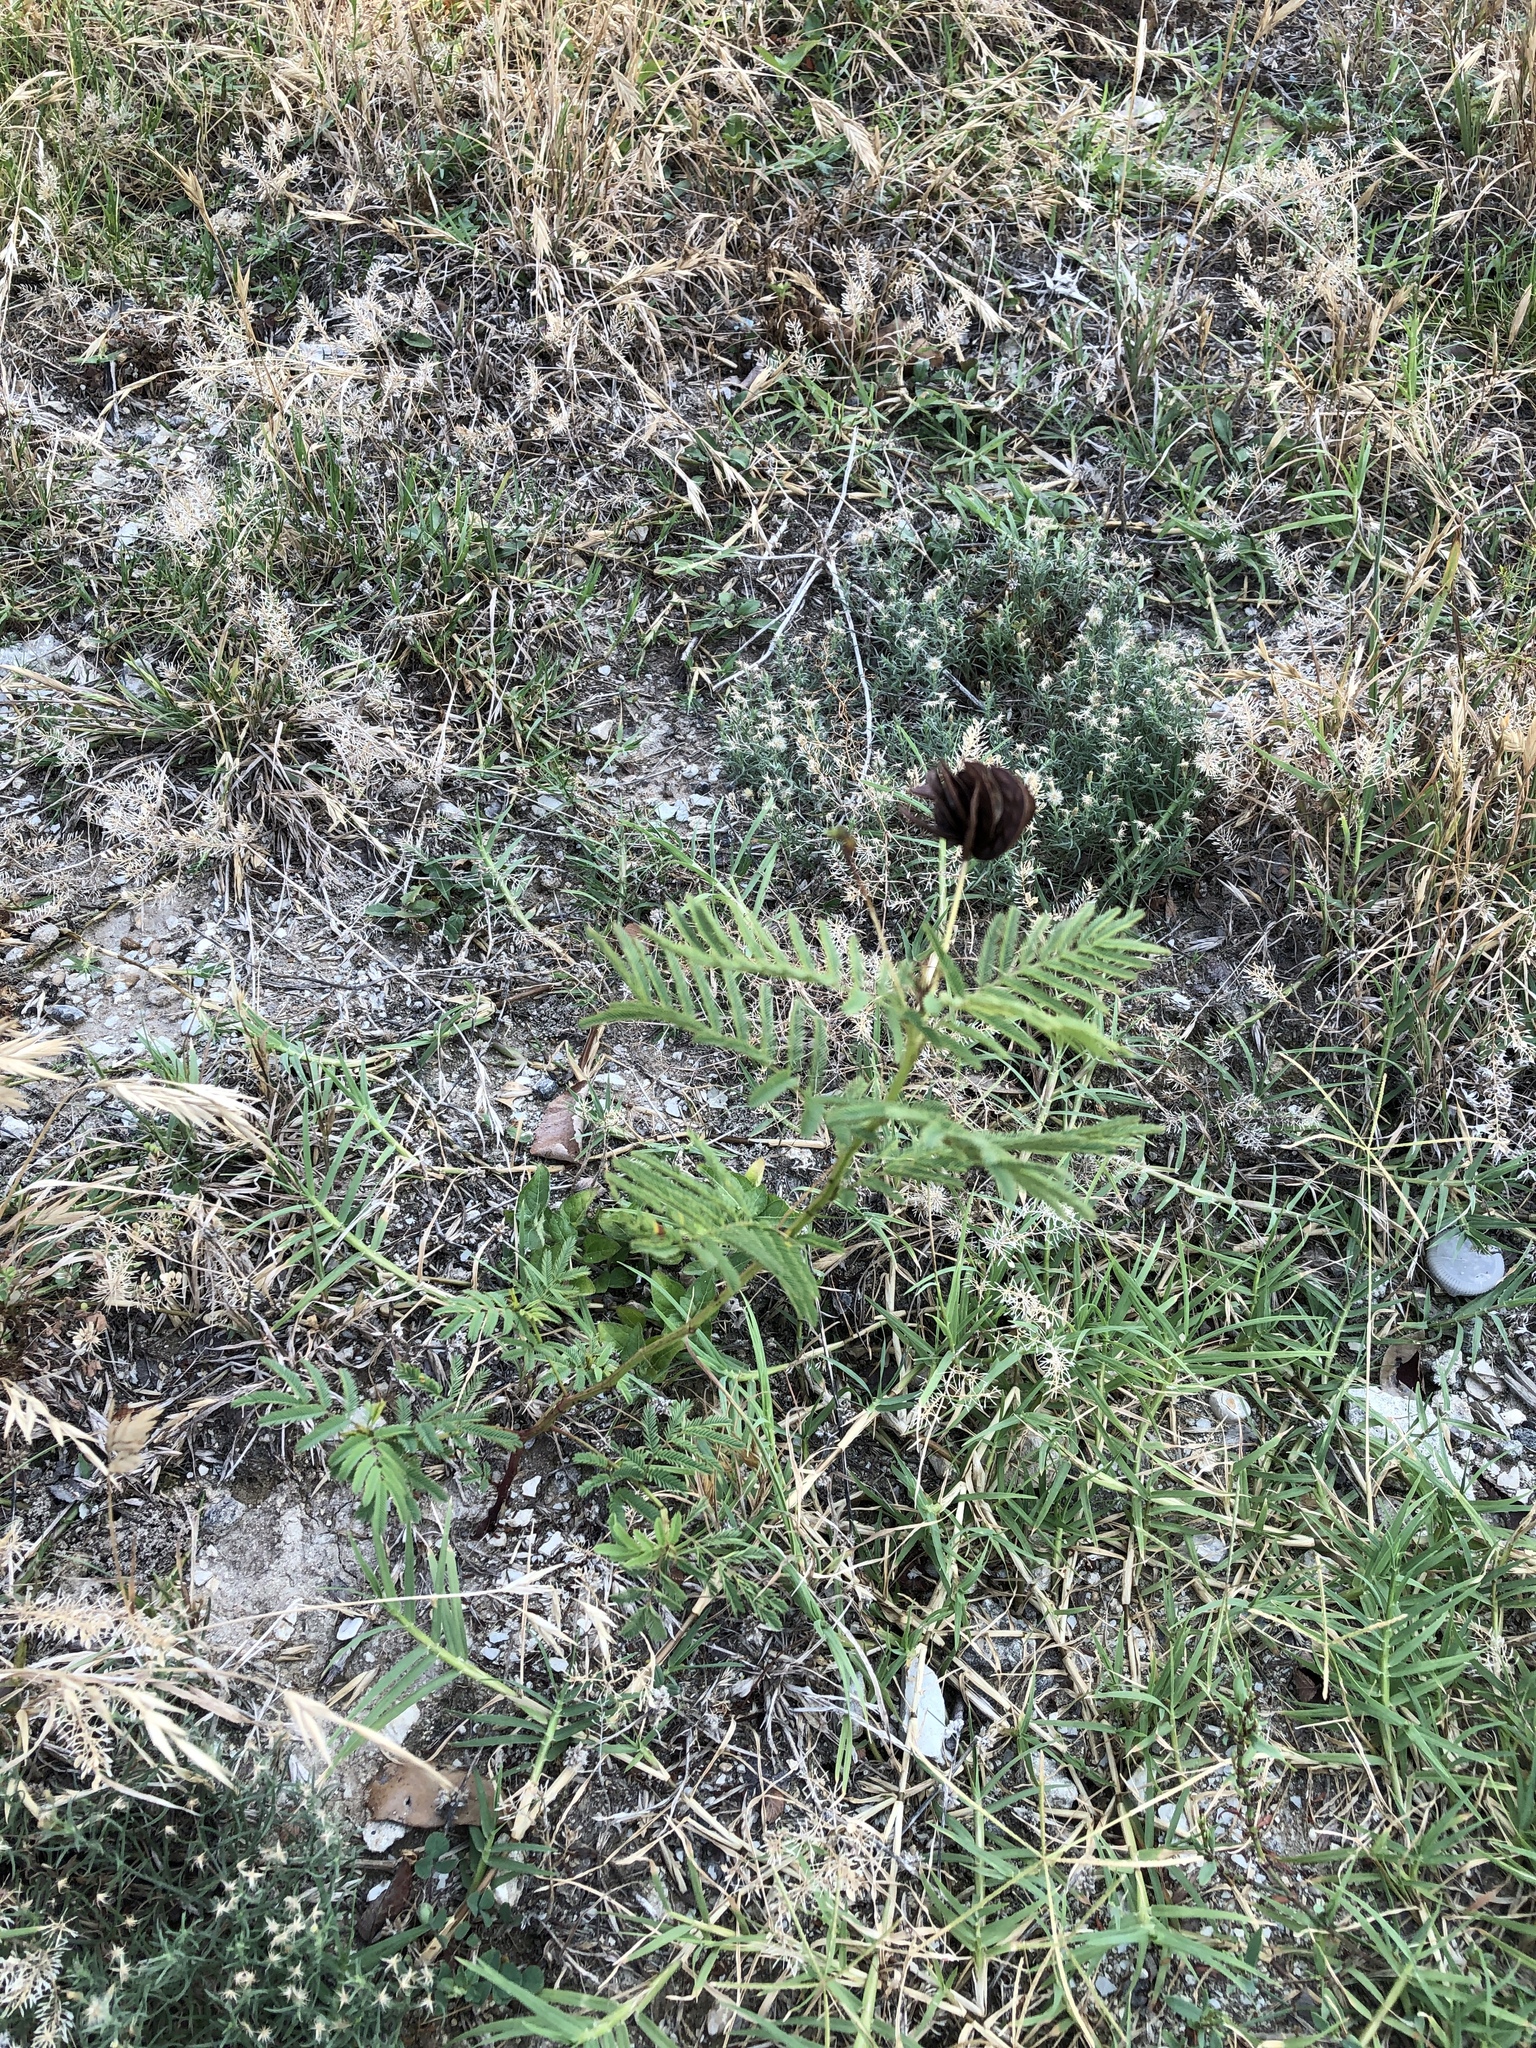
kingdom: Plantae
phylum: Tracheophyta
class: Magnoliopsida
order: Fabales
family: Fabaceae
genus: Desmanthus
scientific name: Desmanthus illinoensis
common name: Illinois bundle-flower
